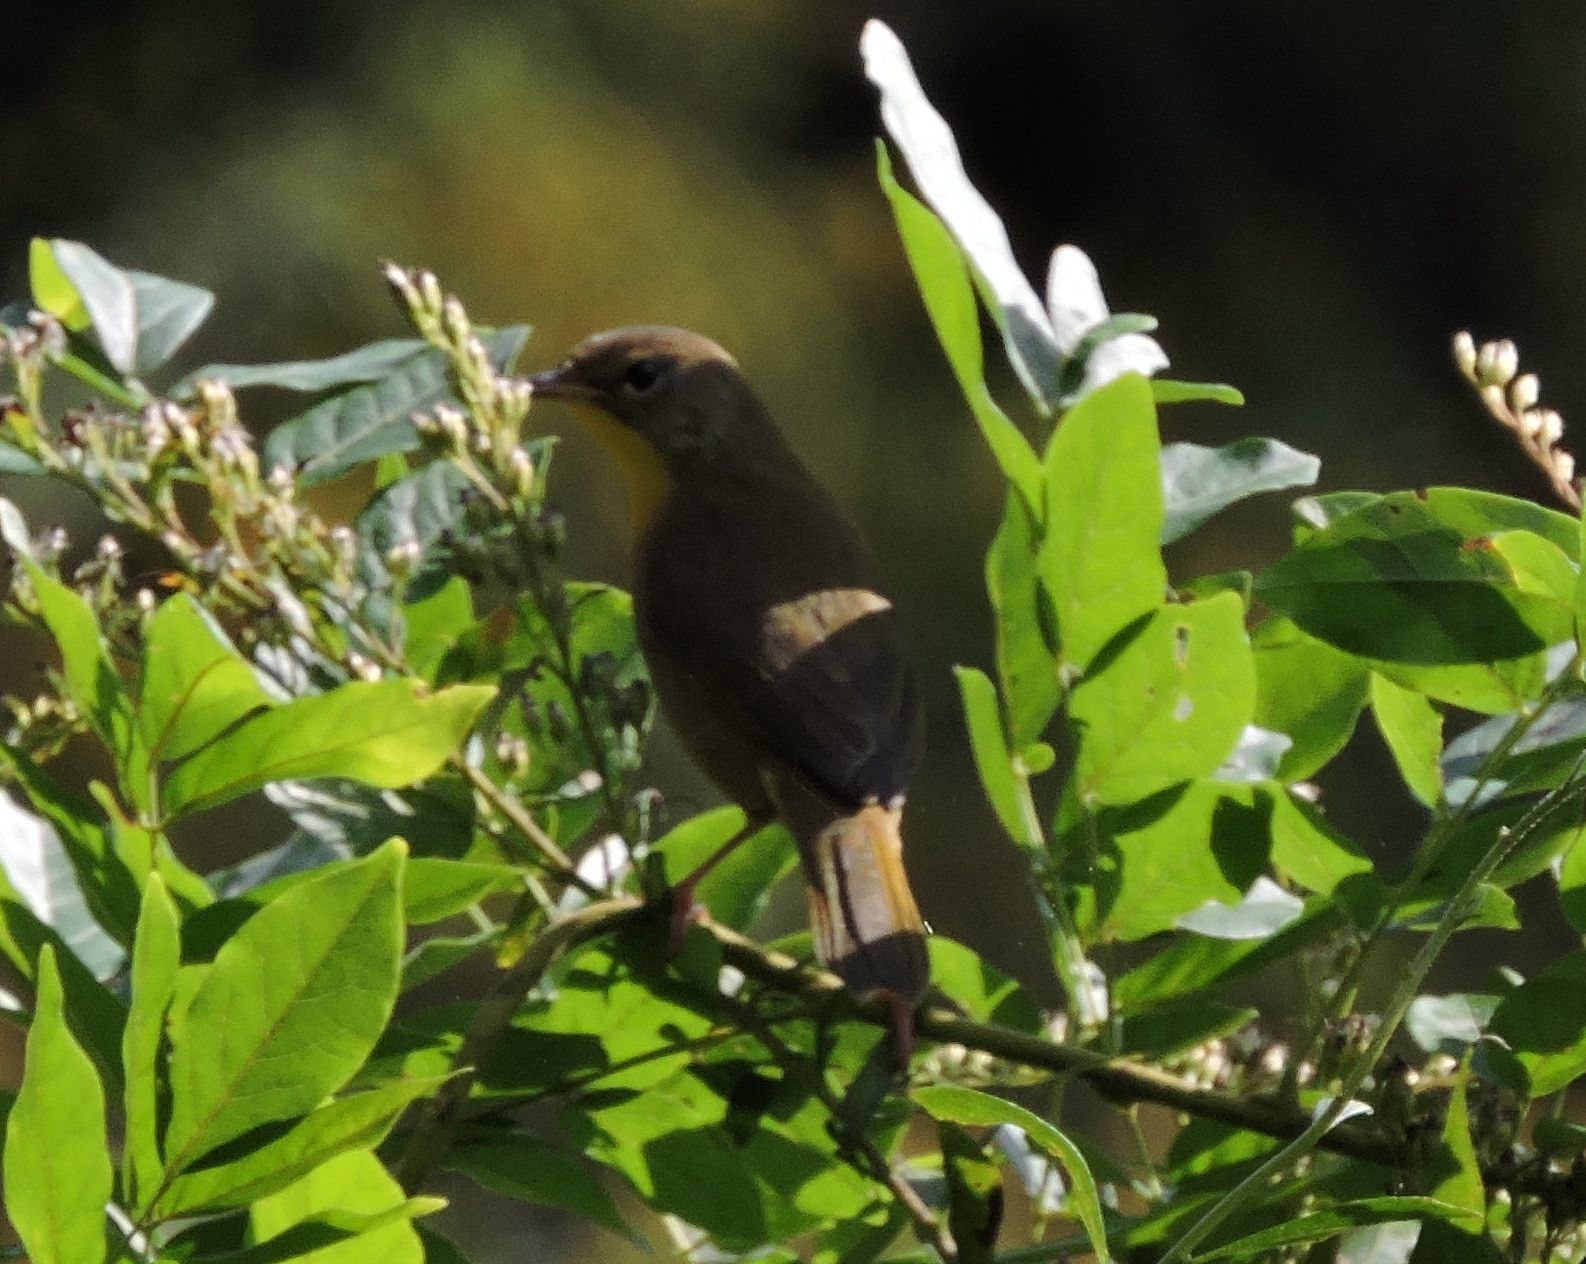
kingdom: Animalia
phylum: Chordata
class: Aves
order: Passeriformes
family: Parulidae
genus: Geothlypis
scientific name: Geothlypis trichas
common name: Common yellowthroat
